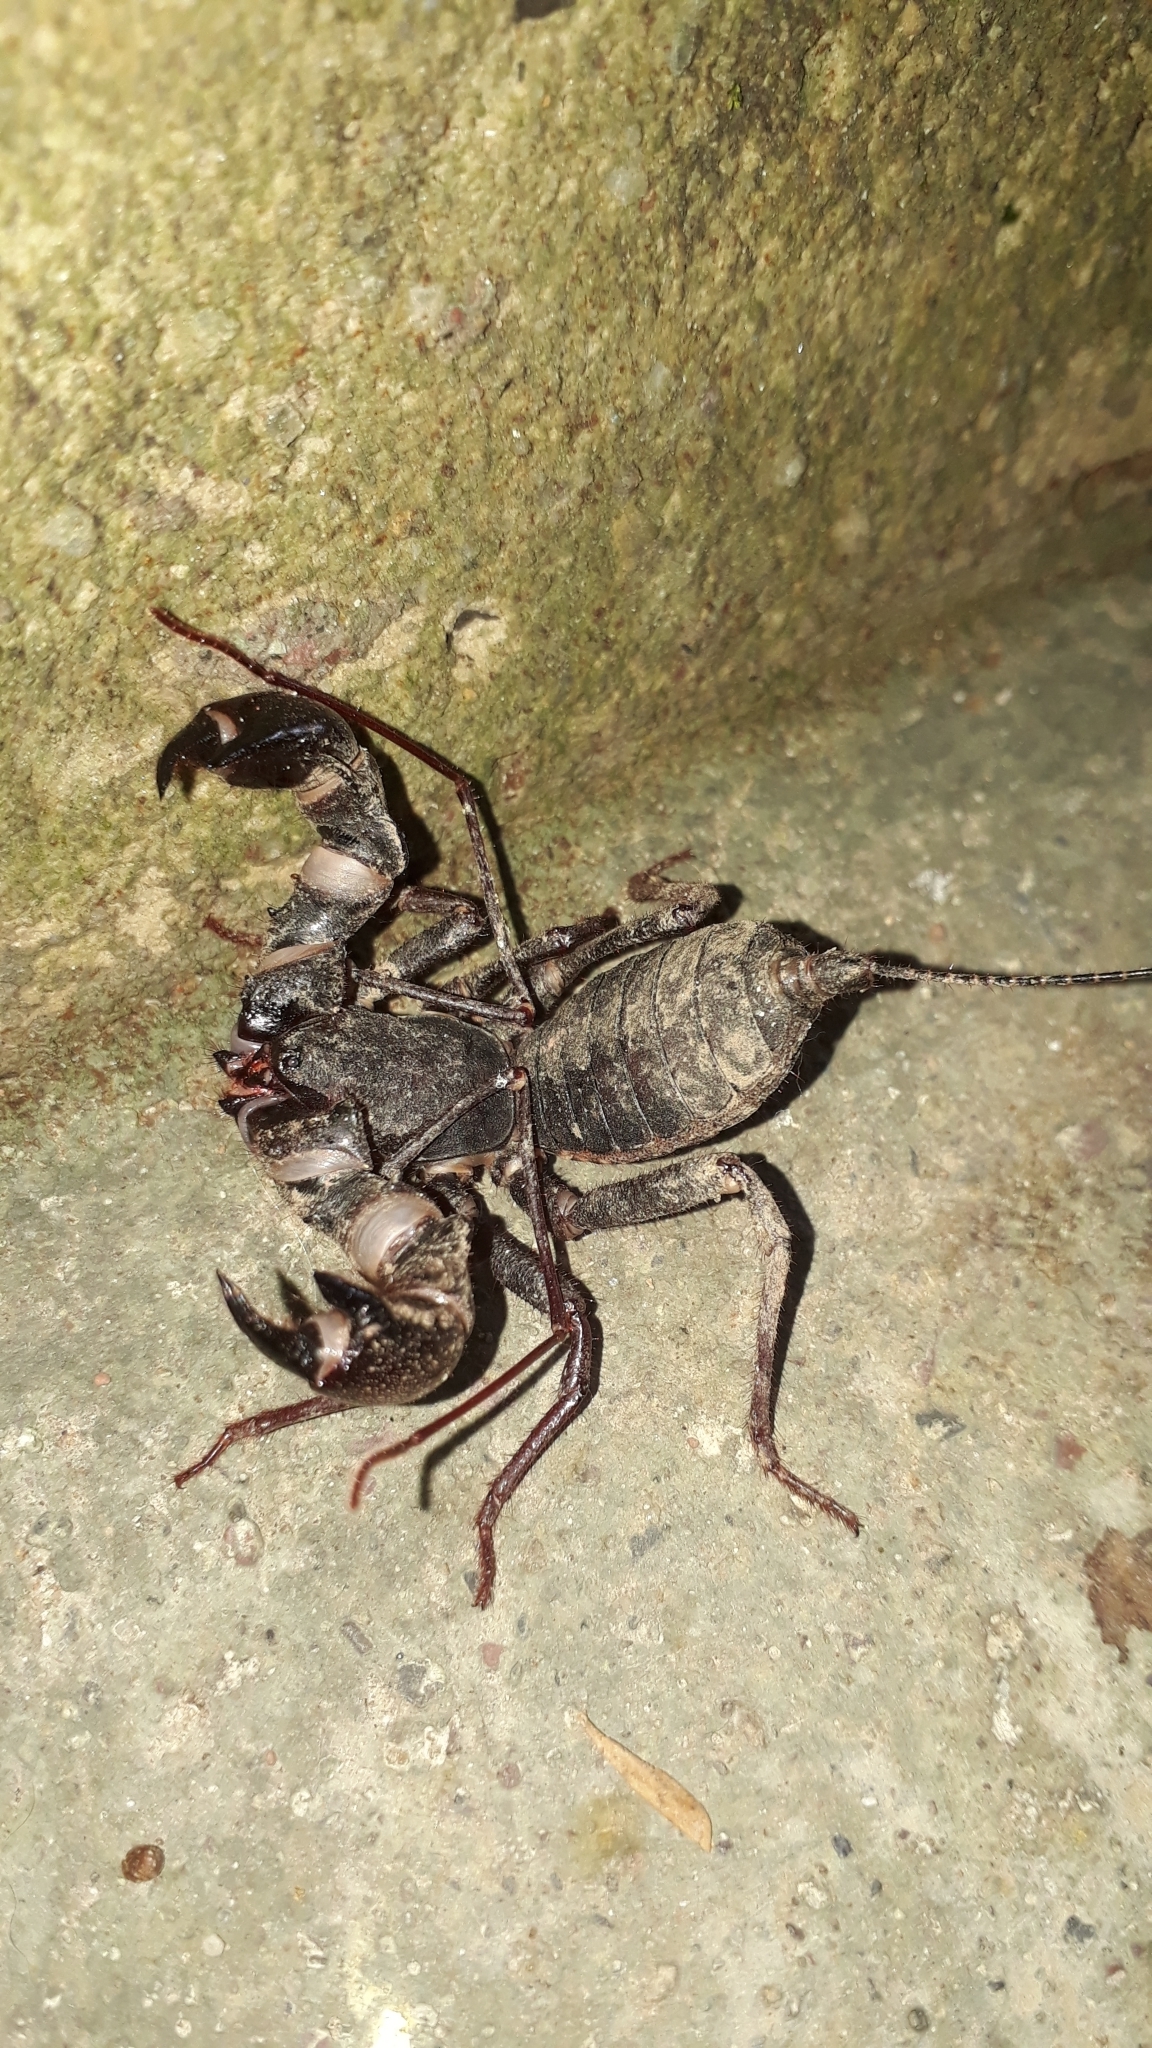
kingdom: Animalia
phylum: Arthropoda
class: Arachnida
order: Uropygi
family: Thelyphonidae
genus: Mastigoproctus
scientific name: Mastigoproctus colombianus
